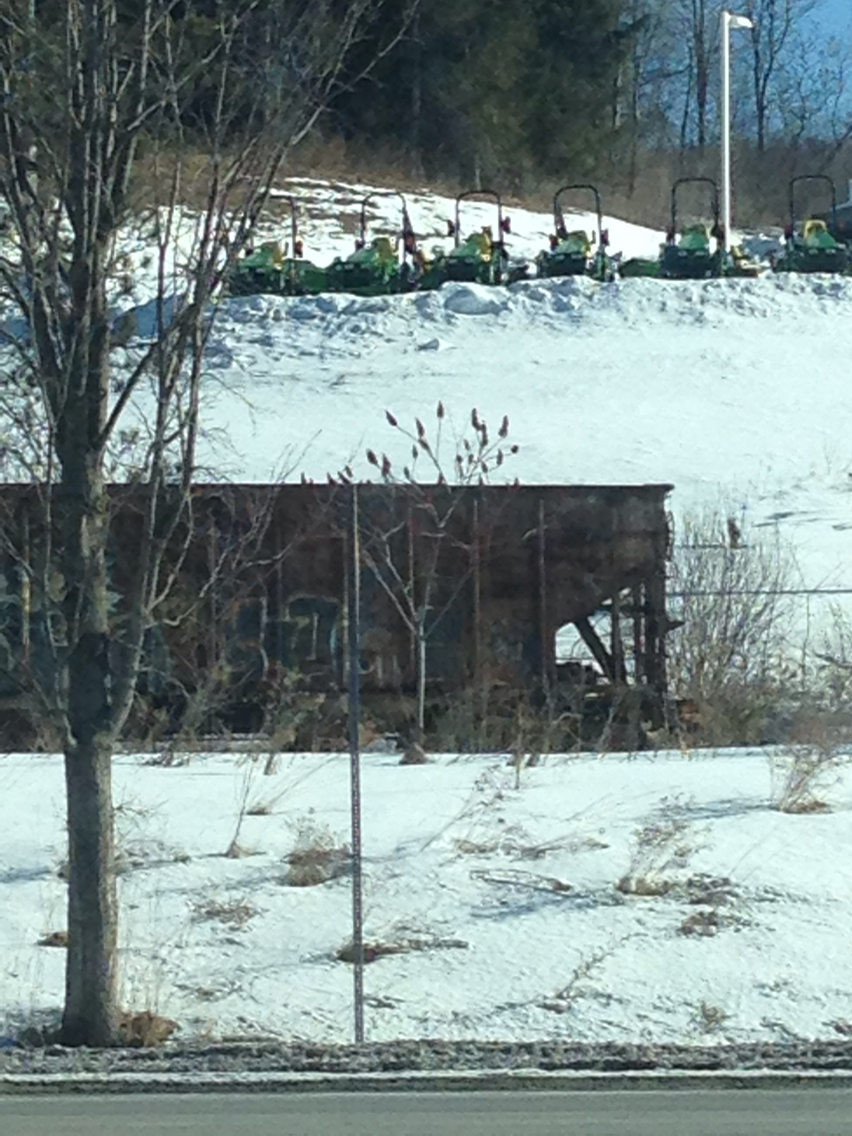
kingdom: Plantae
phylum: Tracheophyta
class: Magnoliopsida
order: Sapindales
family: Anacardiaceae
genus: Rhus
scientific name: Rhus typhina
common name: Staghorn sumac
